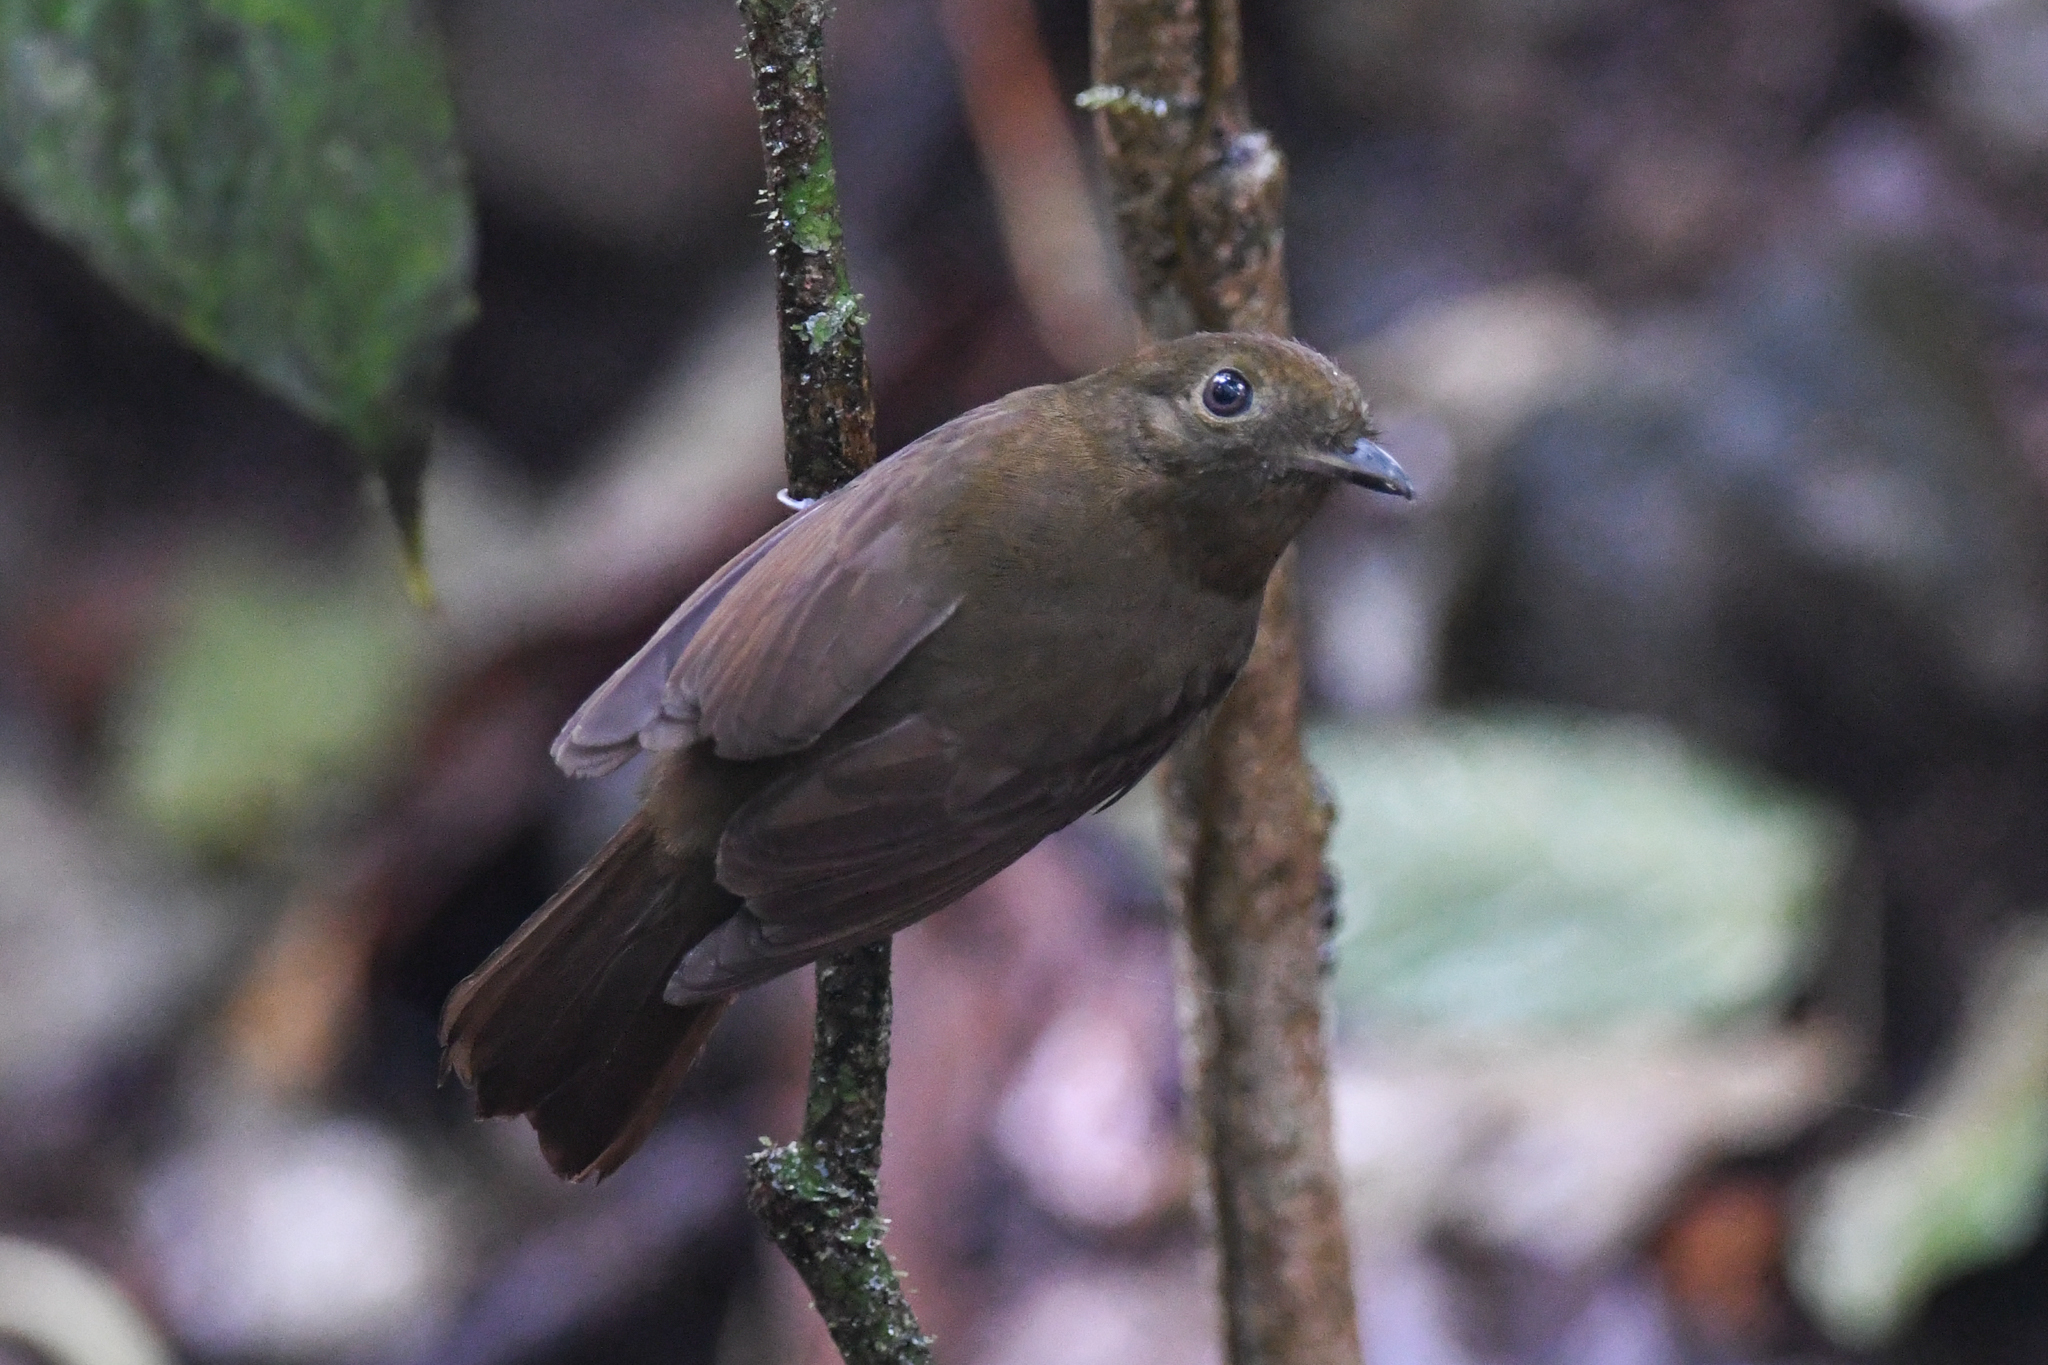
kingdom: Animalia
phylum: Chordata
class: Aves
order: Passeriformes
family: Cotingidae
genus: Schiffornis
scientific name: Schiffornis turdina
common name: Brown-winged schiffornis
